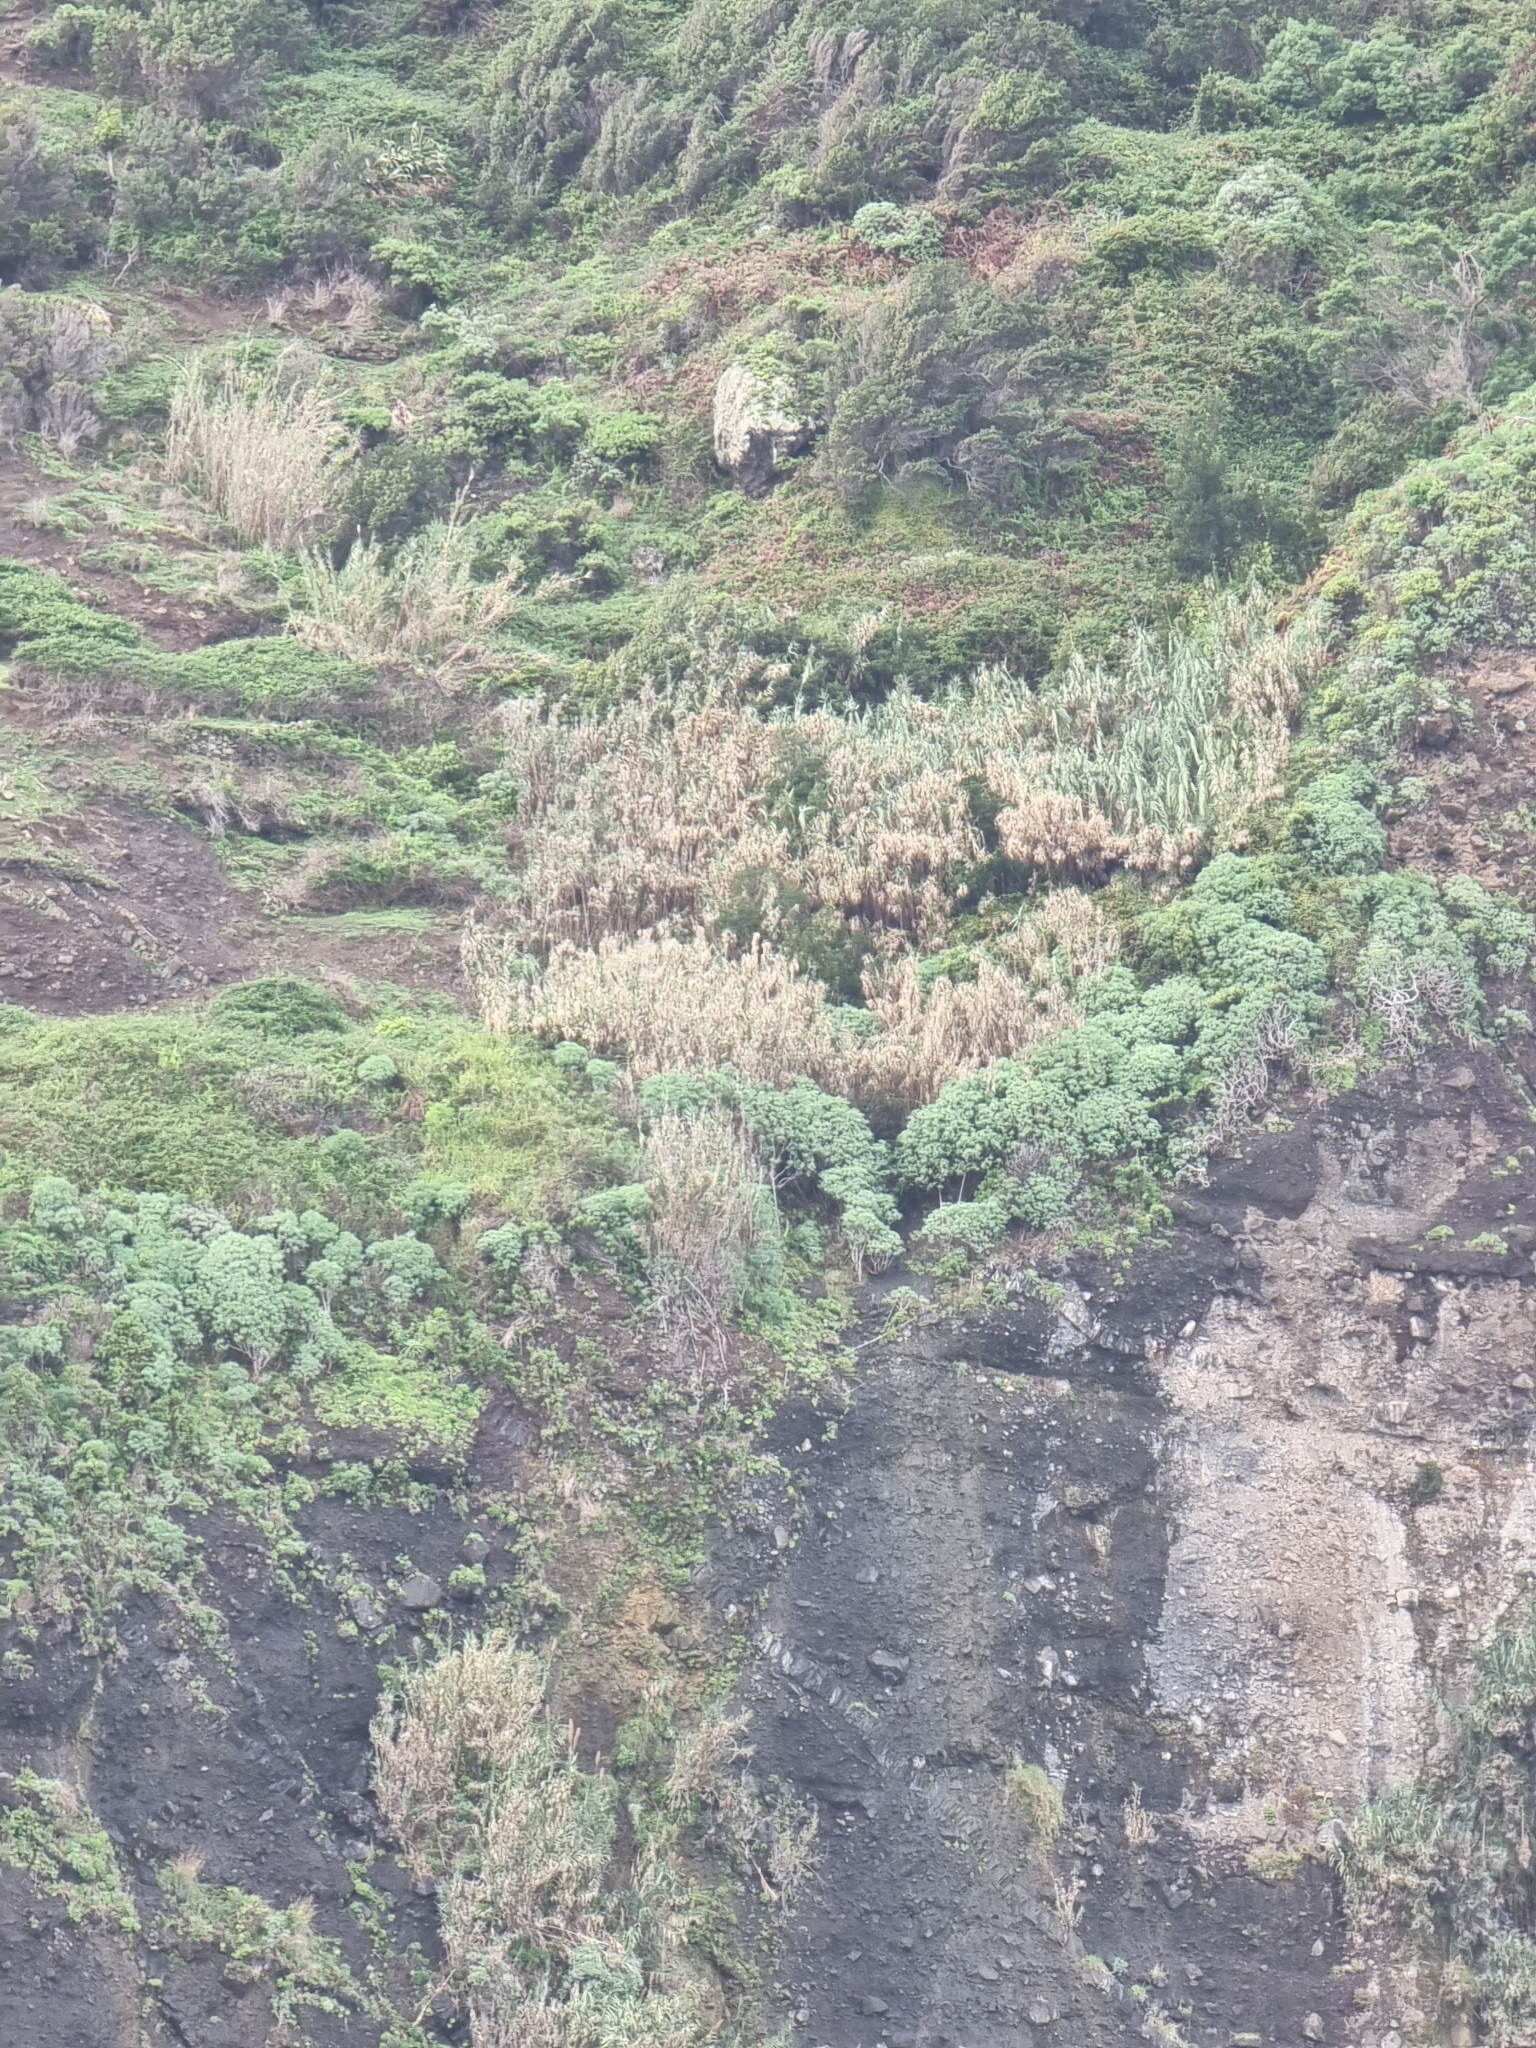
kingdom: Plantae
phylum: Tracheophyta
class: Magnoliopsida
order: Malpighiales
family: Euphorbiaceae
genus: Euphorbia
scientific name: Euphorbia piscatoria
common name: Fish-stunning spurge
